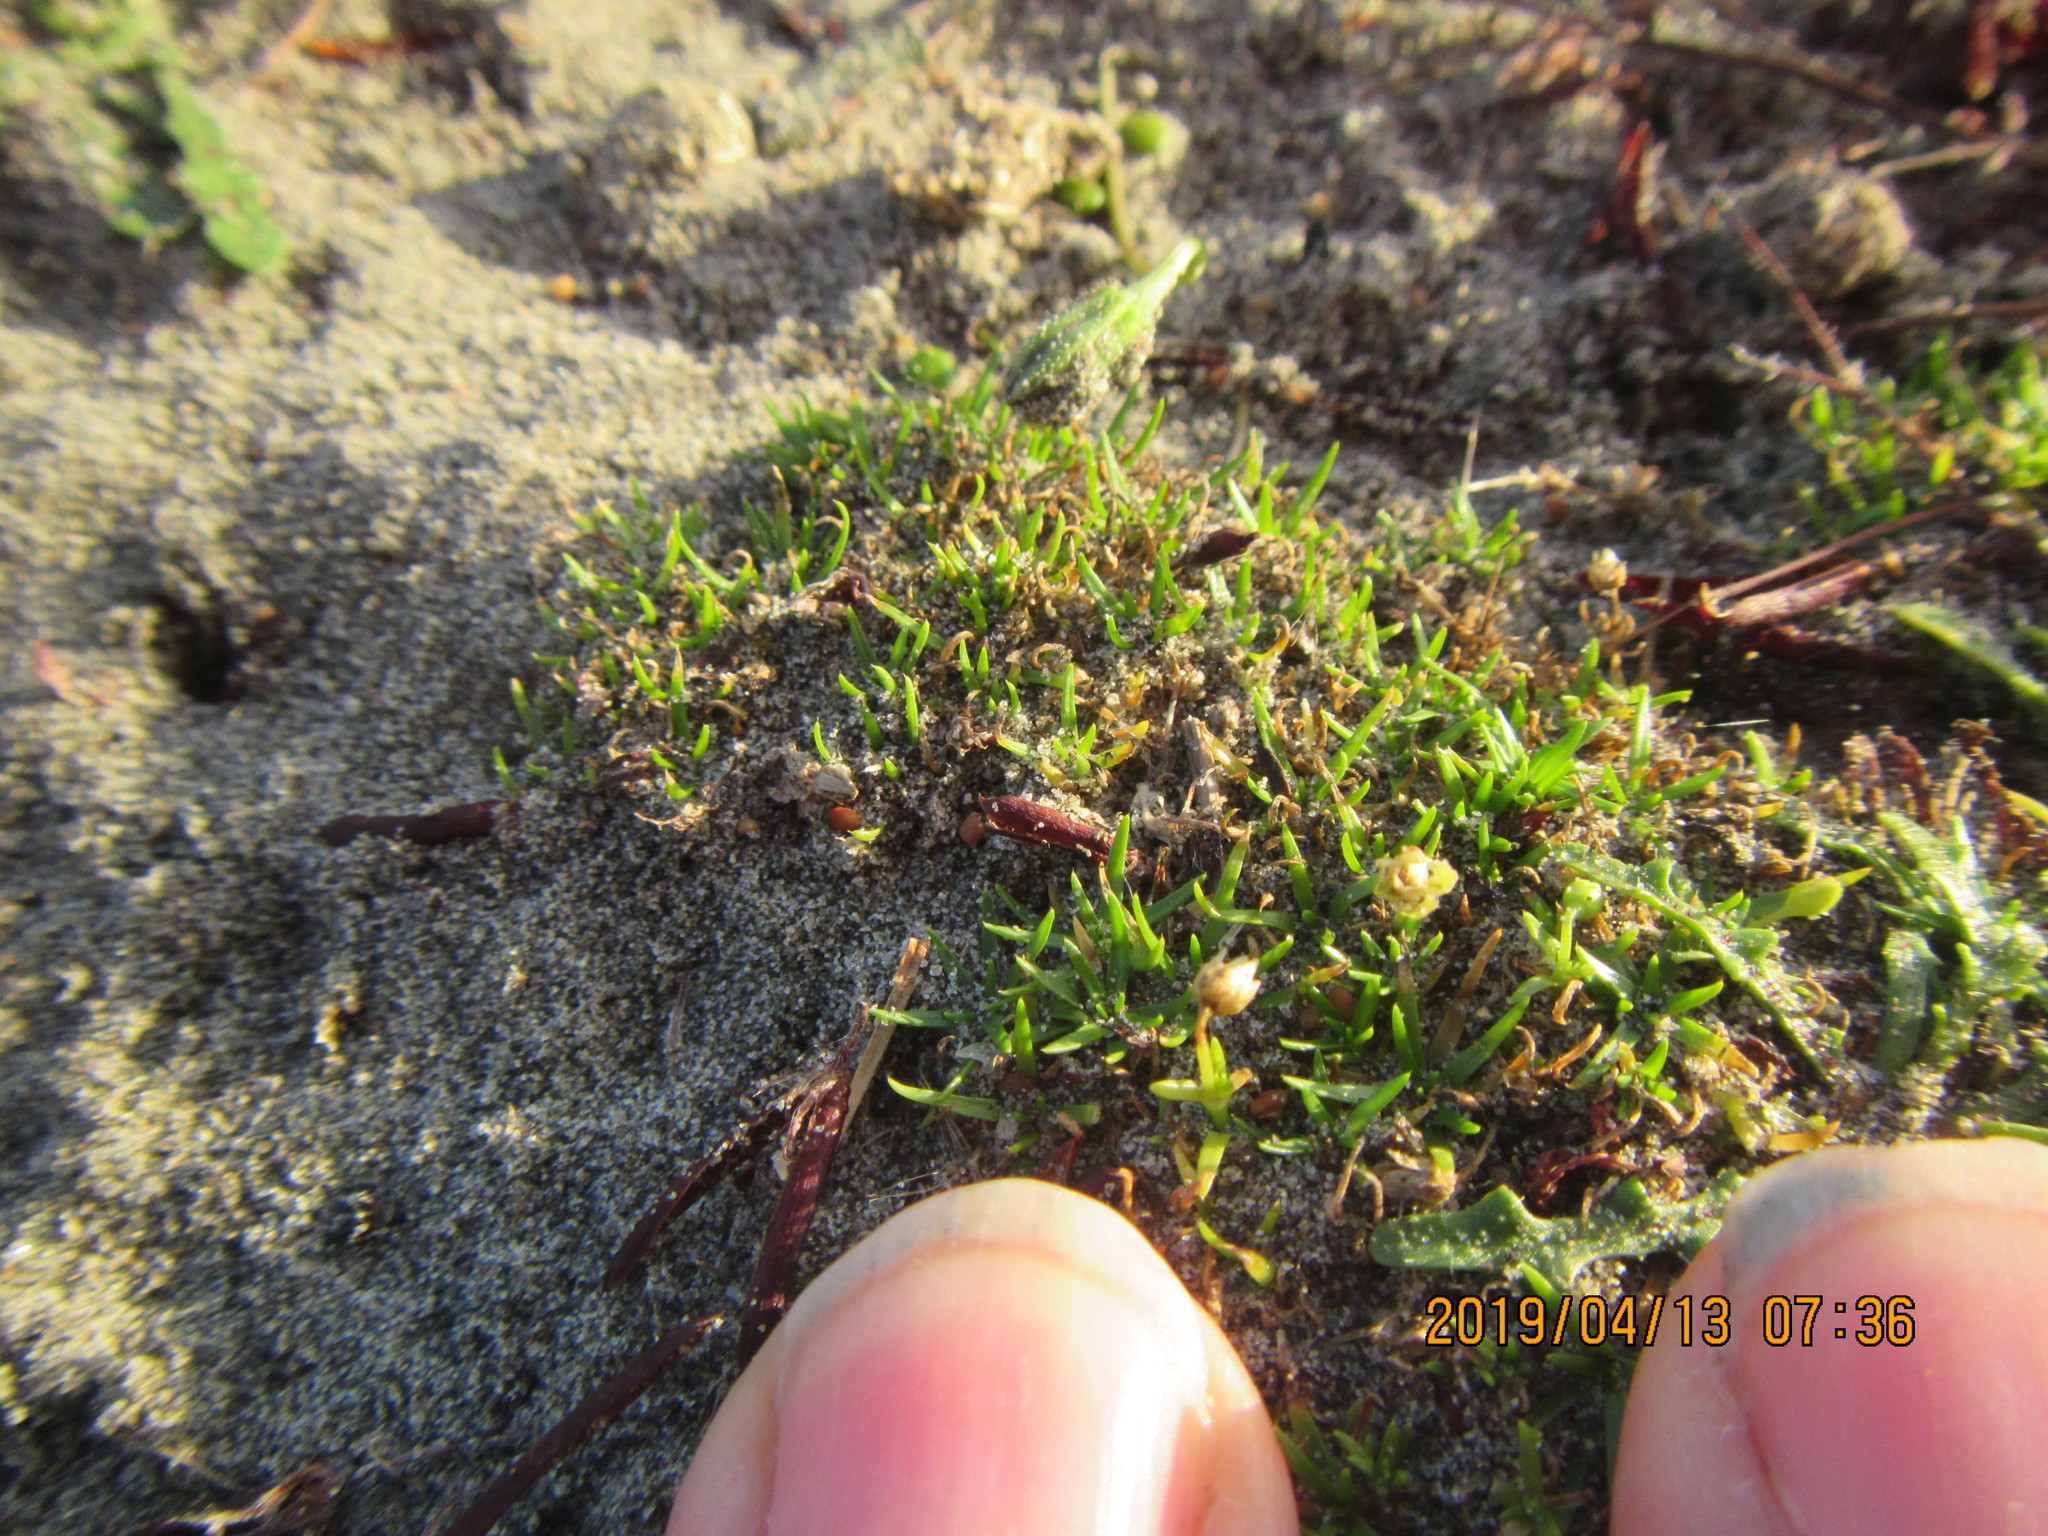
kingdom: Plantae
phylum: Tracheophyta
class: Magnoliopsida
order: Caryophyllales
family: Caryophyllaceae
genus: Sagina
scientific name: Sagina procumbens
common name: Procumbent pearlwort
